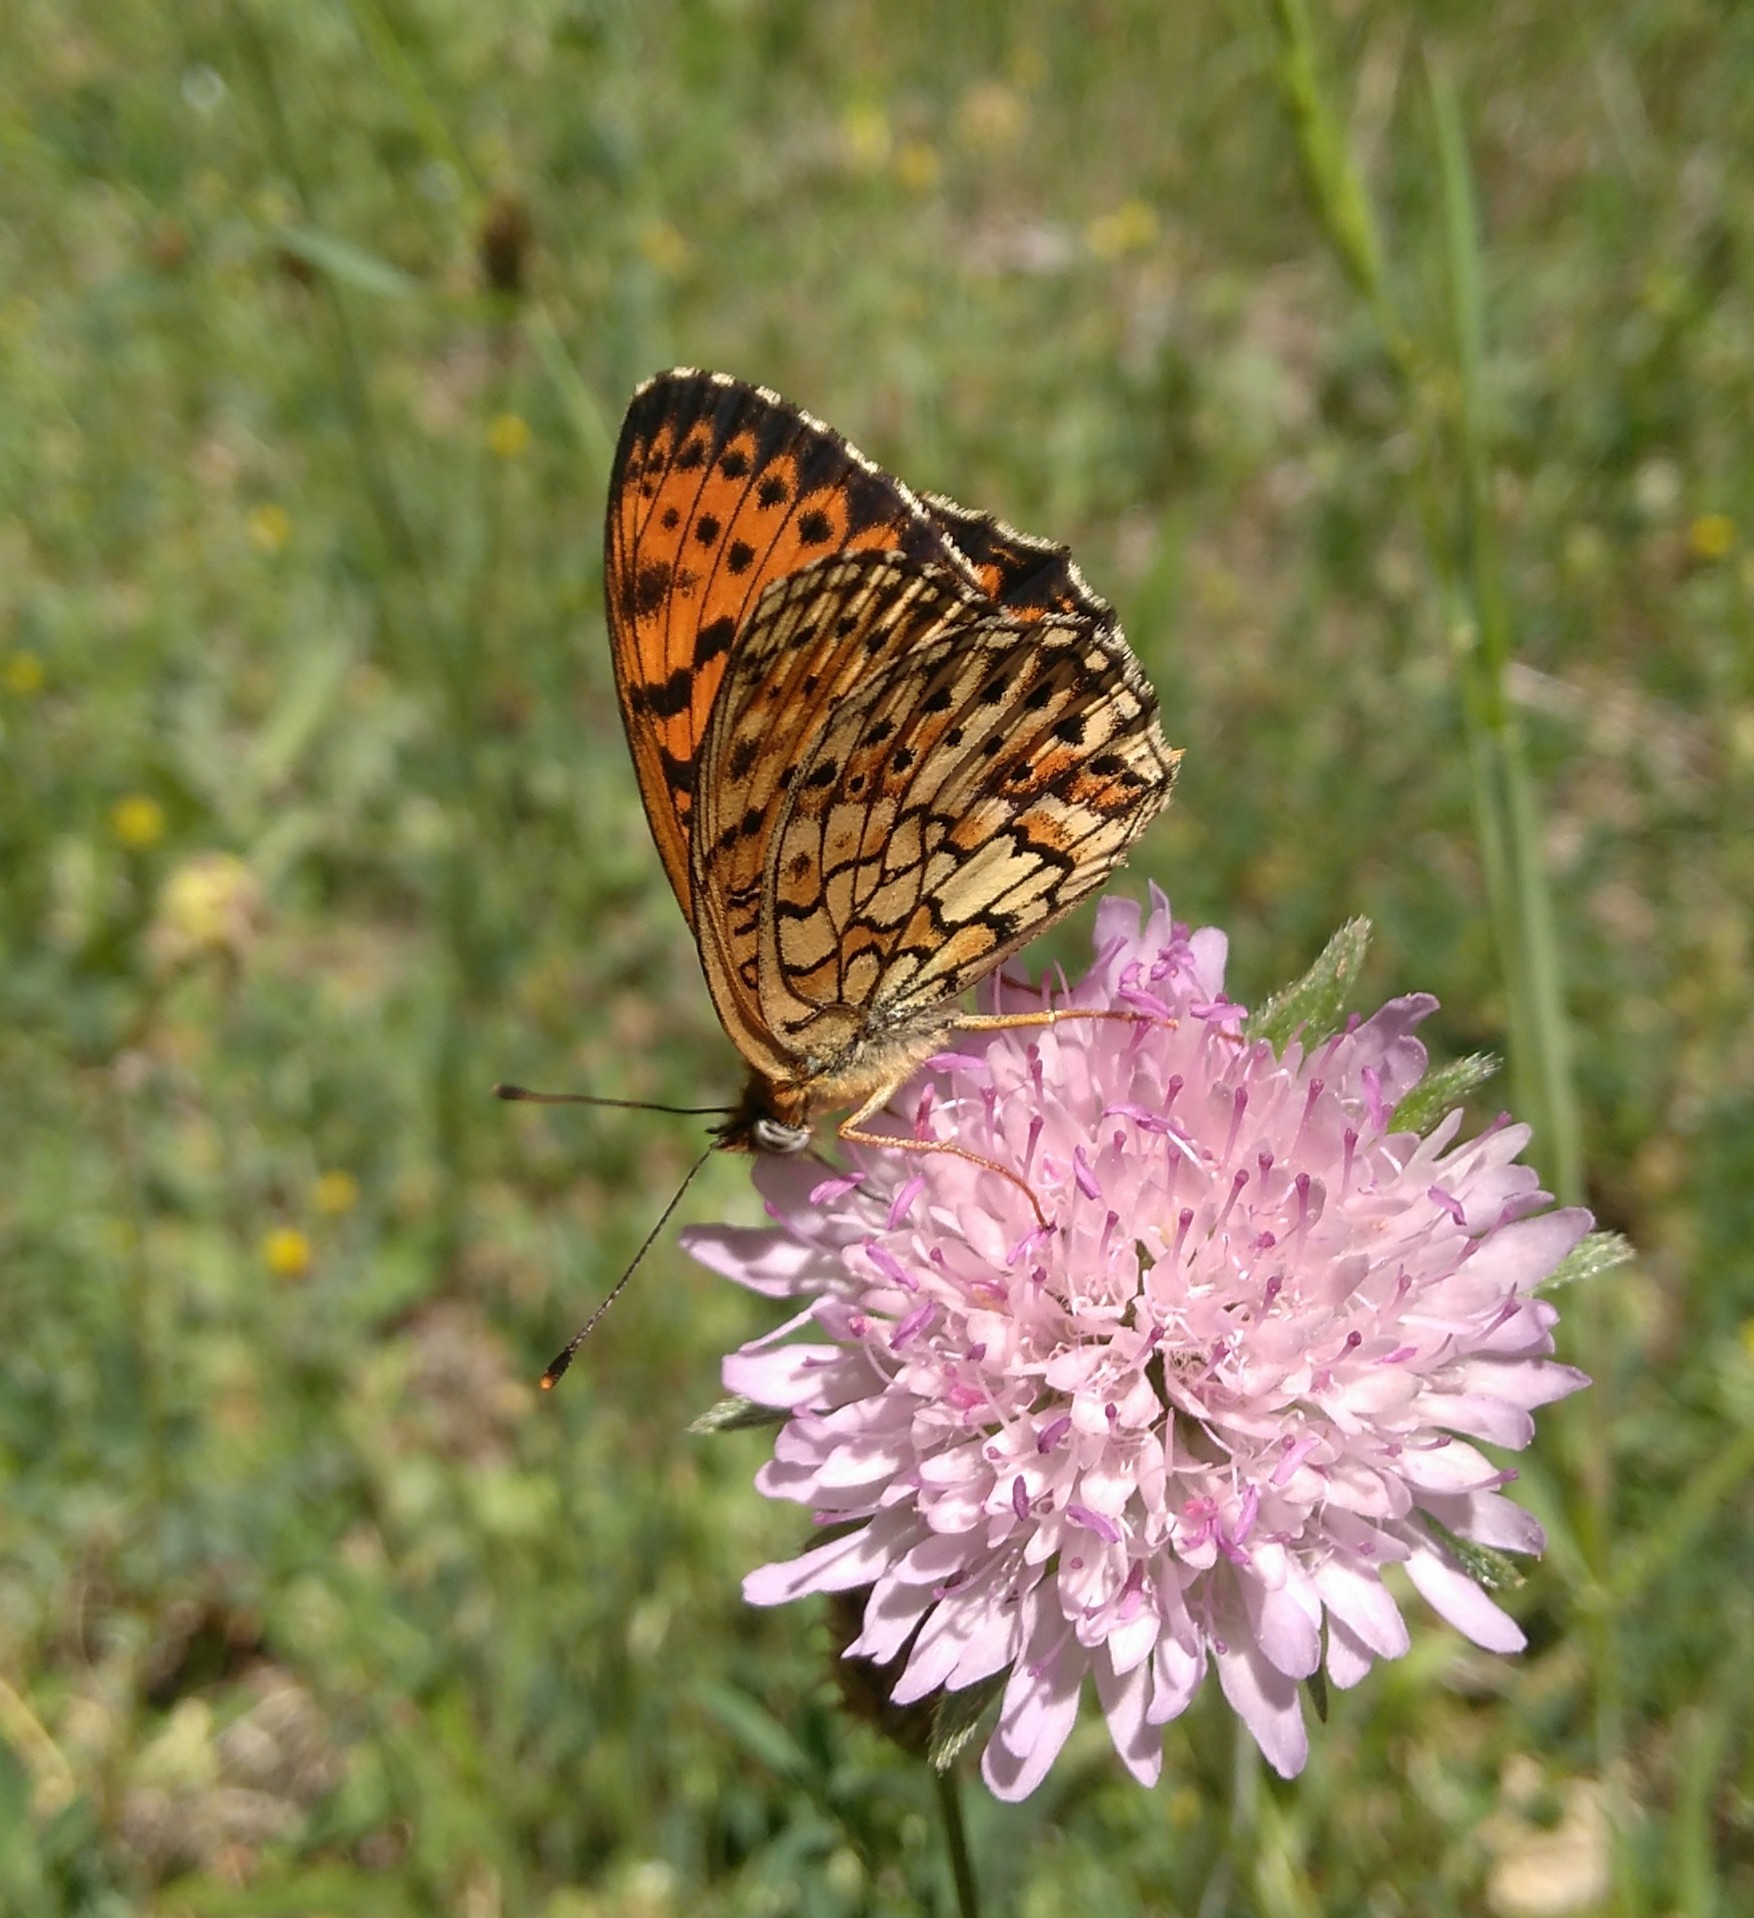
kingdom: Animalia
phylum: Arthropoda
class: Insecta
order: Lepidoptera
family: Nymphalidae
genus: Brenthis
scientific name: Brenthis hecate
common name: Twin-spot fritillary
